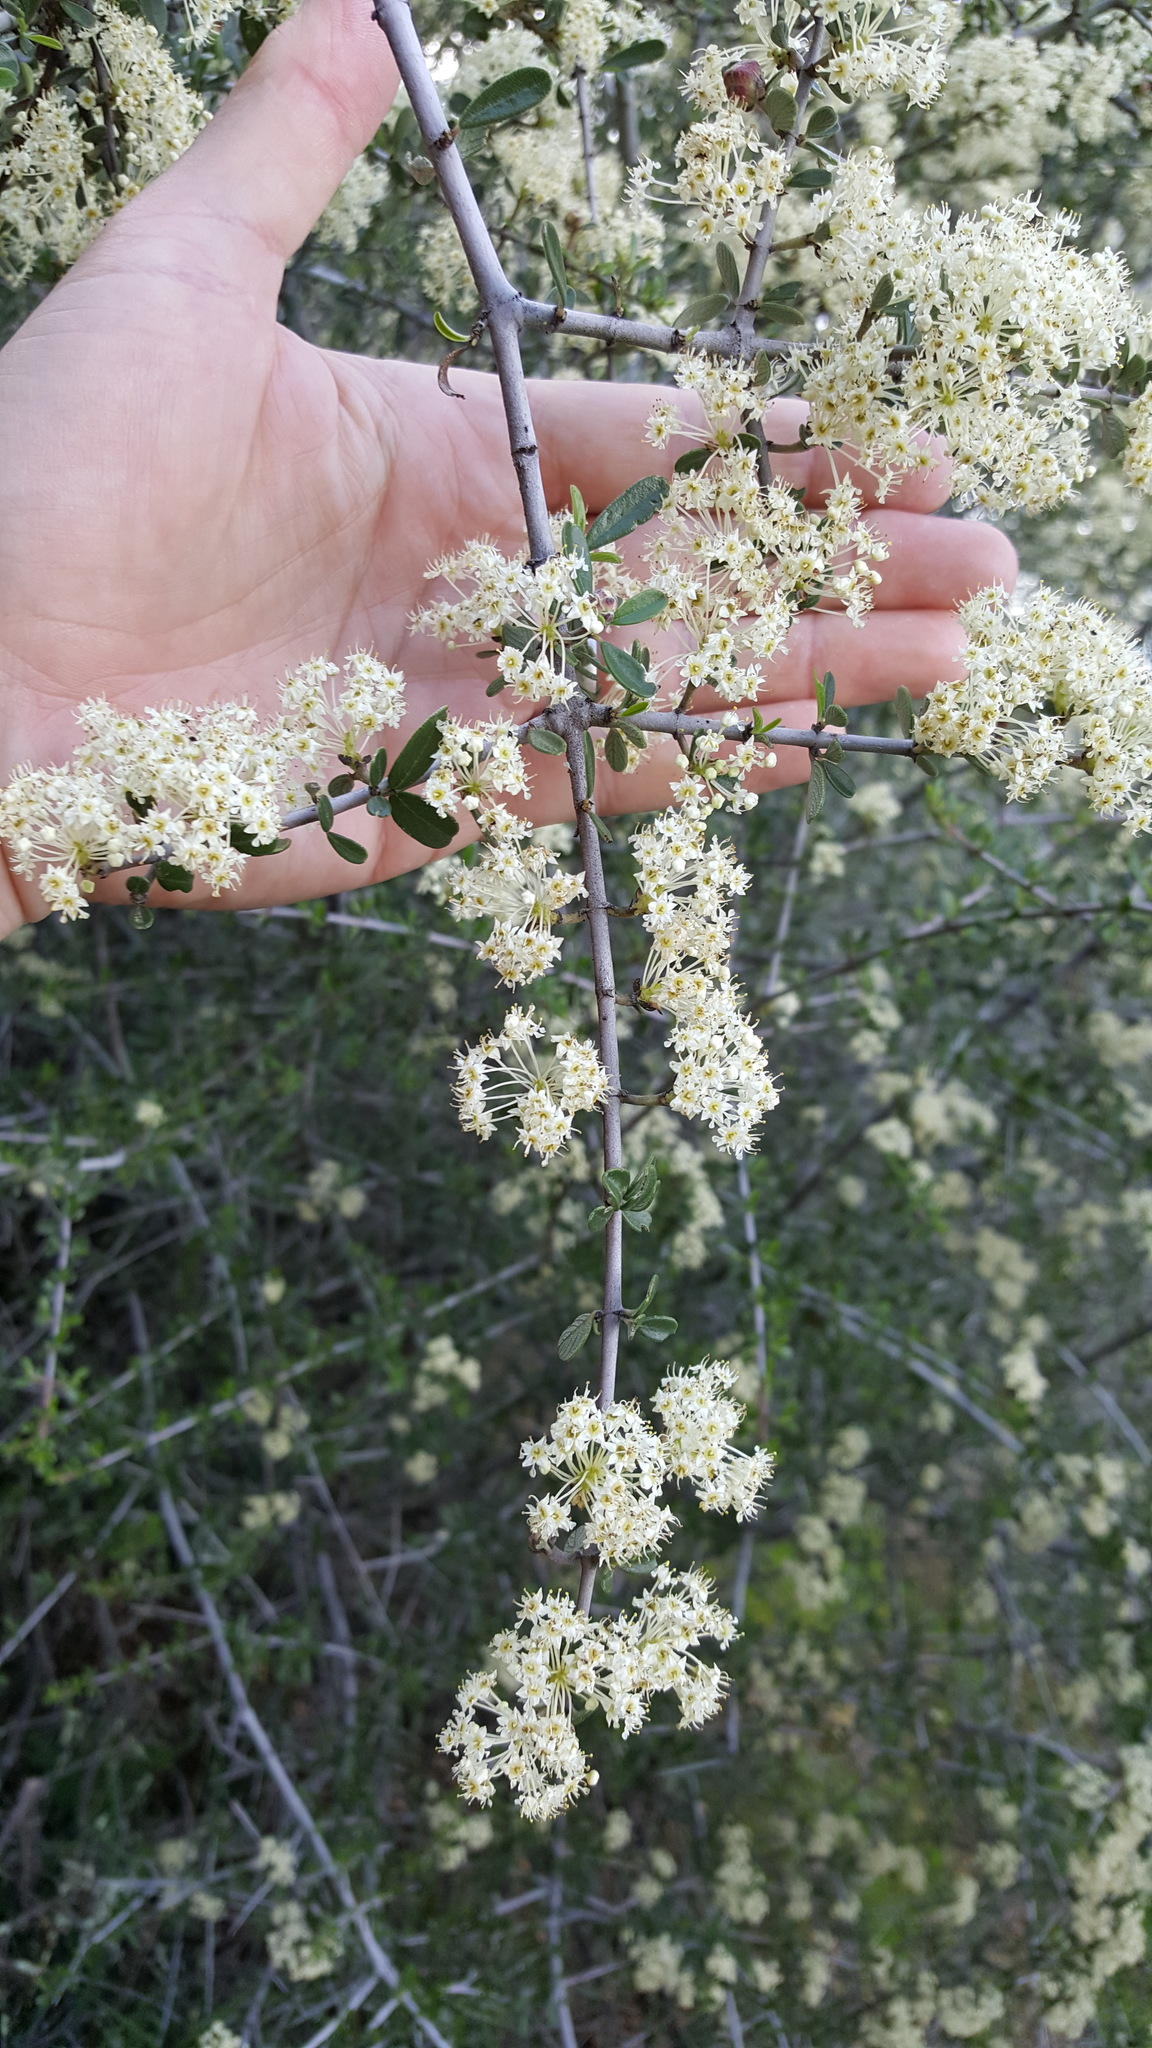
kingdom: Plantae
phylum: Tracheophyta
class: Magnoliopsida
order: Rosales
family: Rhamnaceae
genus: Ceanothus
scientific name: Ceanothus cuneatus
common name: Cuneate ceanothus
